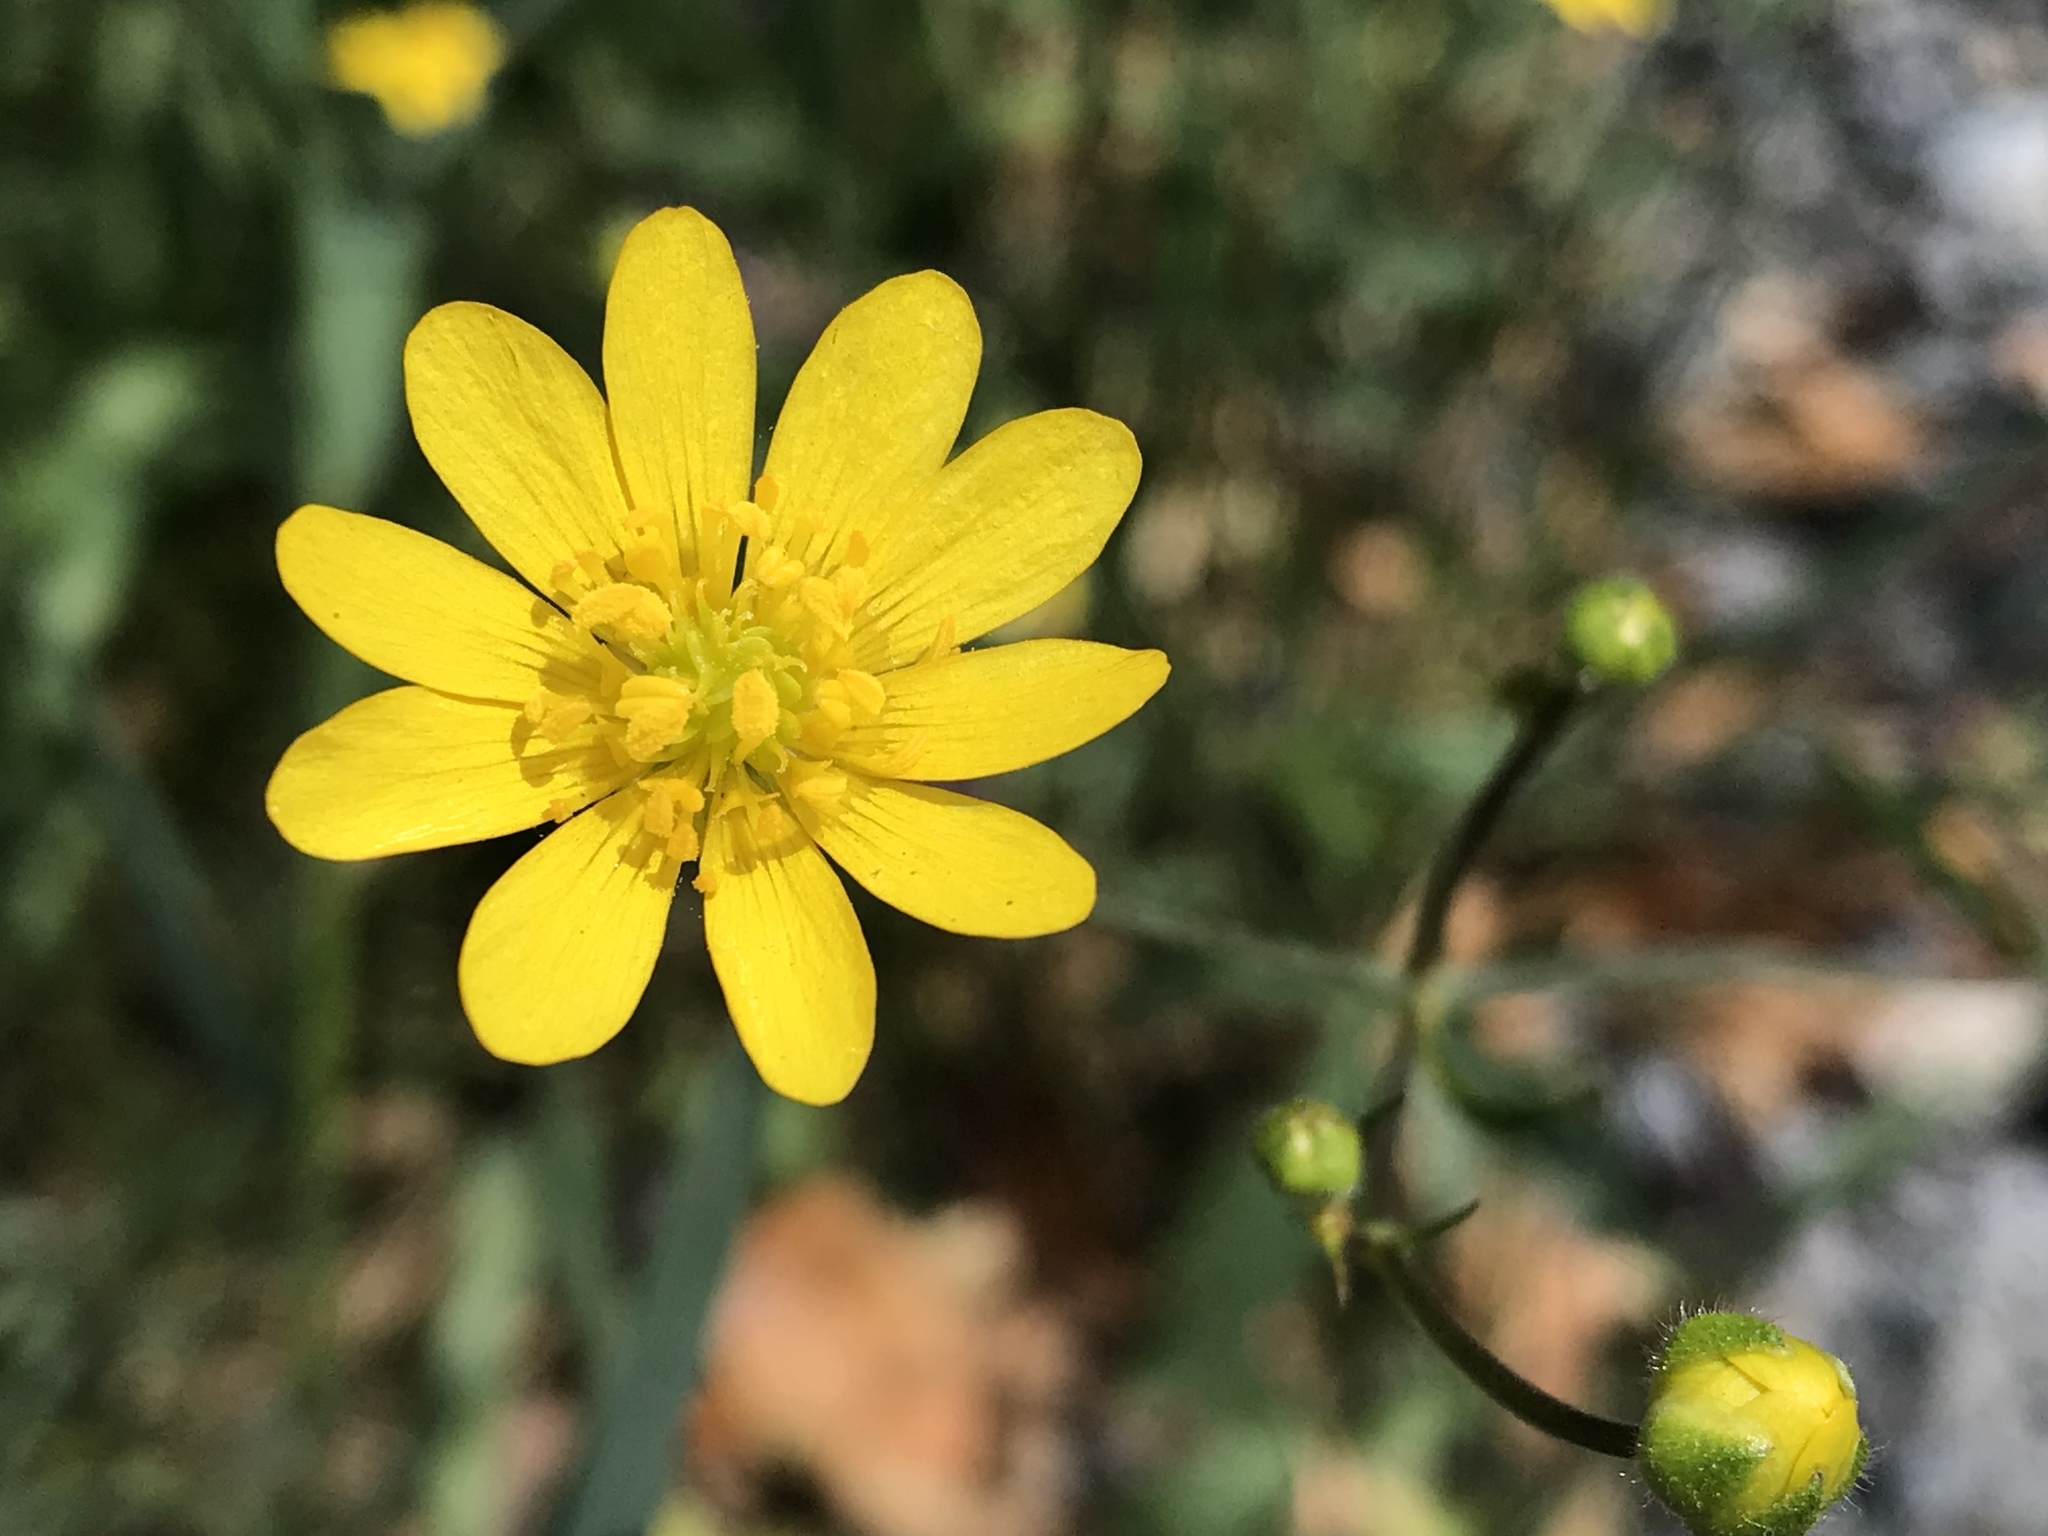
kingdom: Plantae
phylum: Tracheophyta
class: Magnoliopsida
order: Ranunculales
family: Ranunculaceae
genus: Ranunculus
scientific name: Ranunculus californicus
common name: California buttercup
